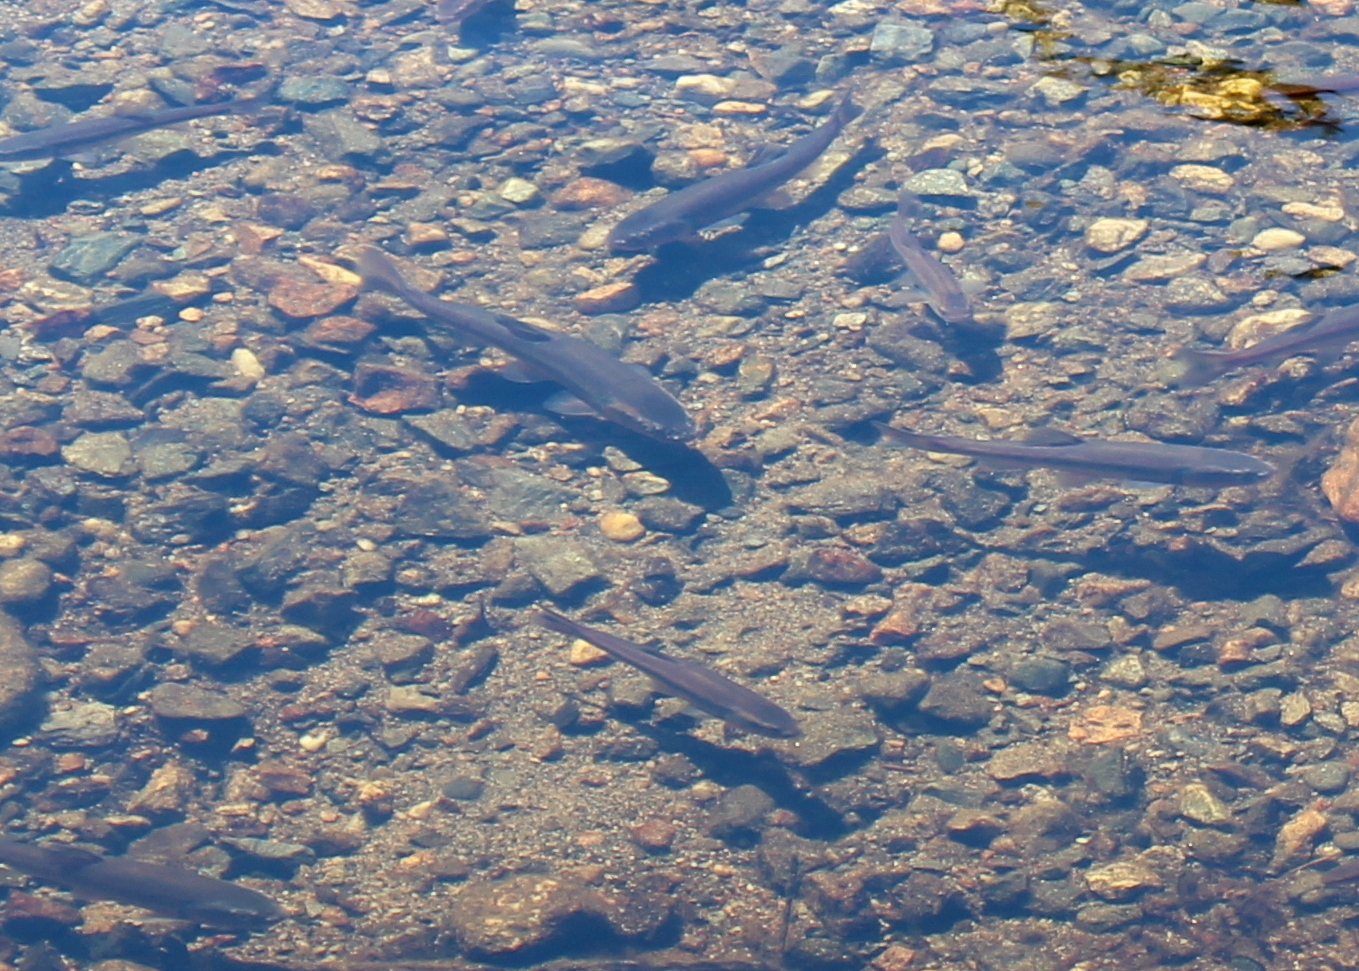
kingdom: Animalia
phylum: Chordata
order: Cypriniformes
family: Cyprinidae
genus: Semotilus
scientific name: Semotilus atromaculatus
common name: Creek chub
